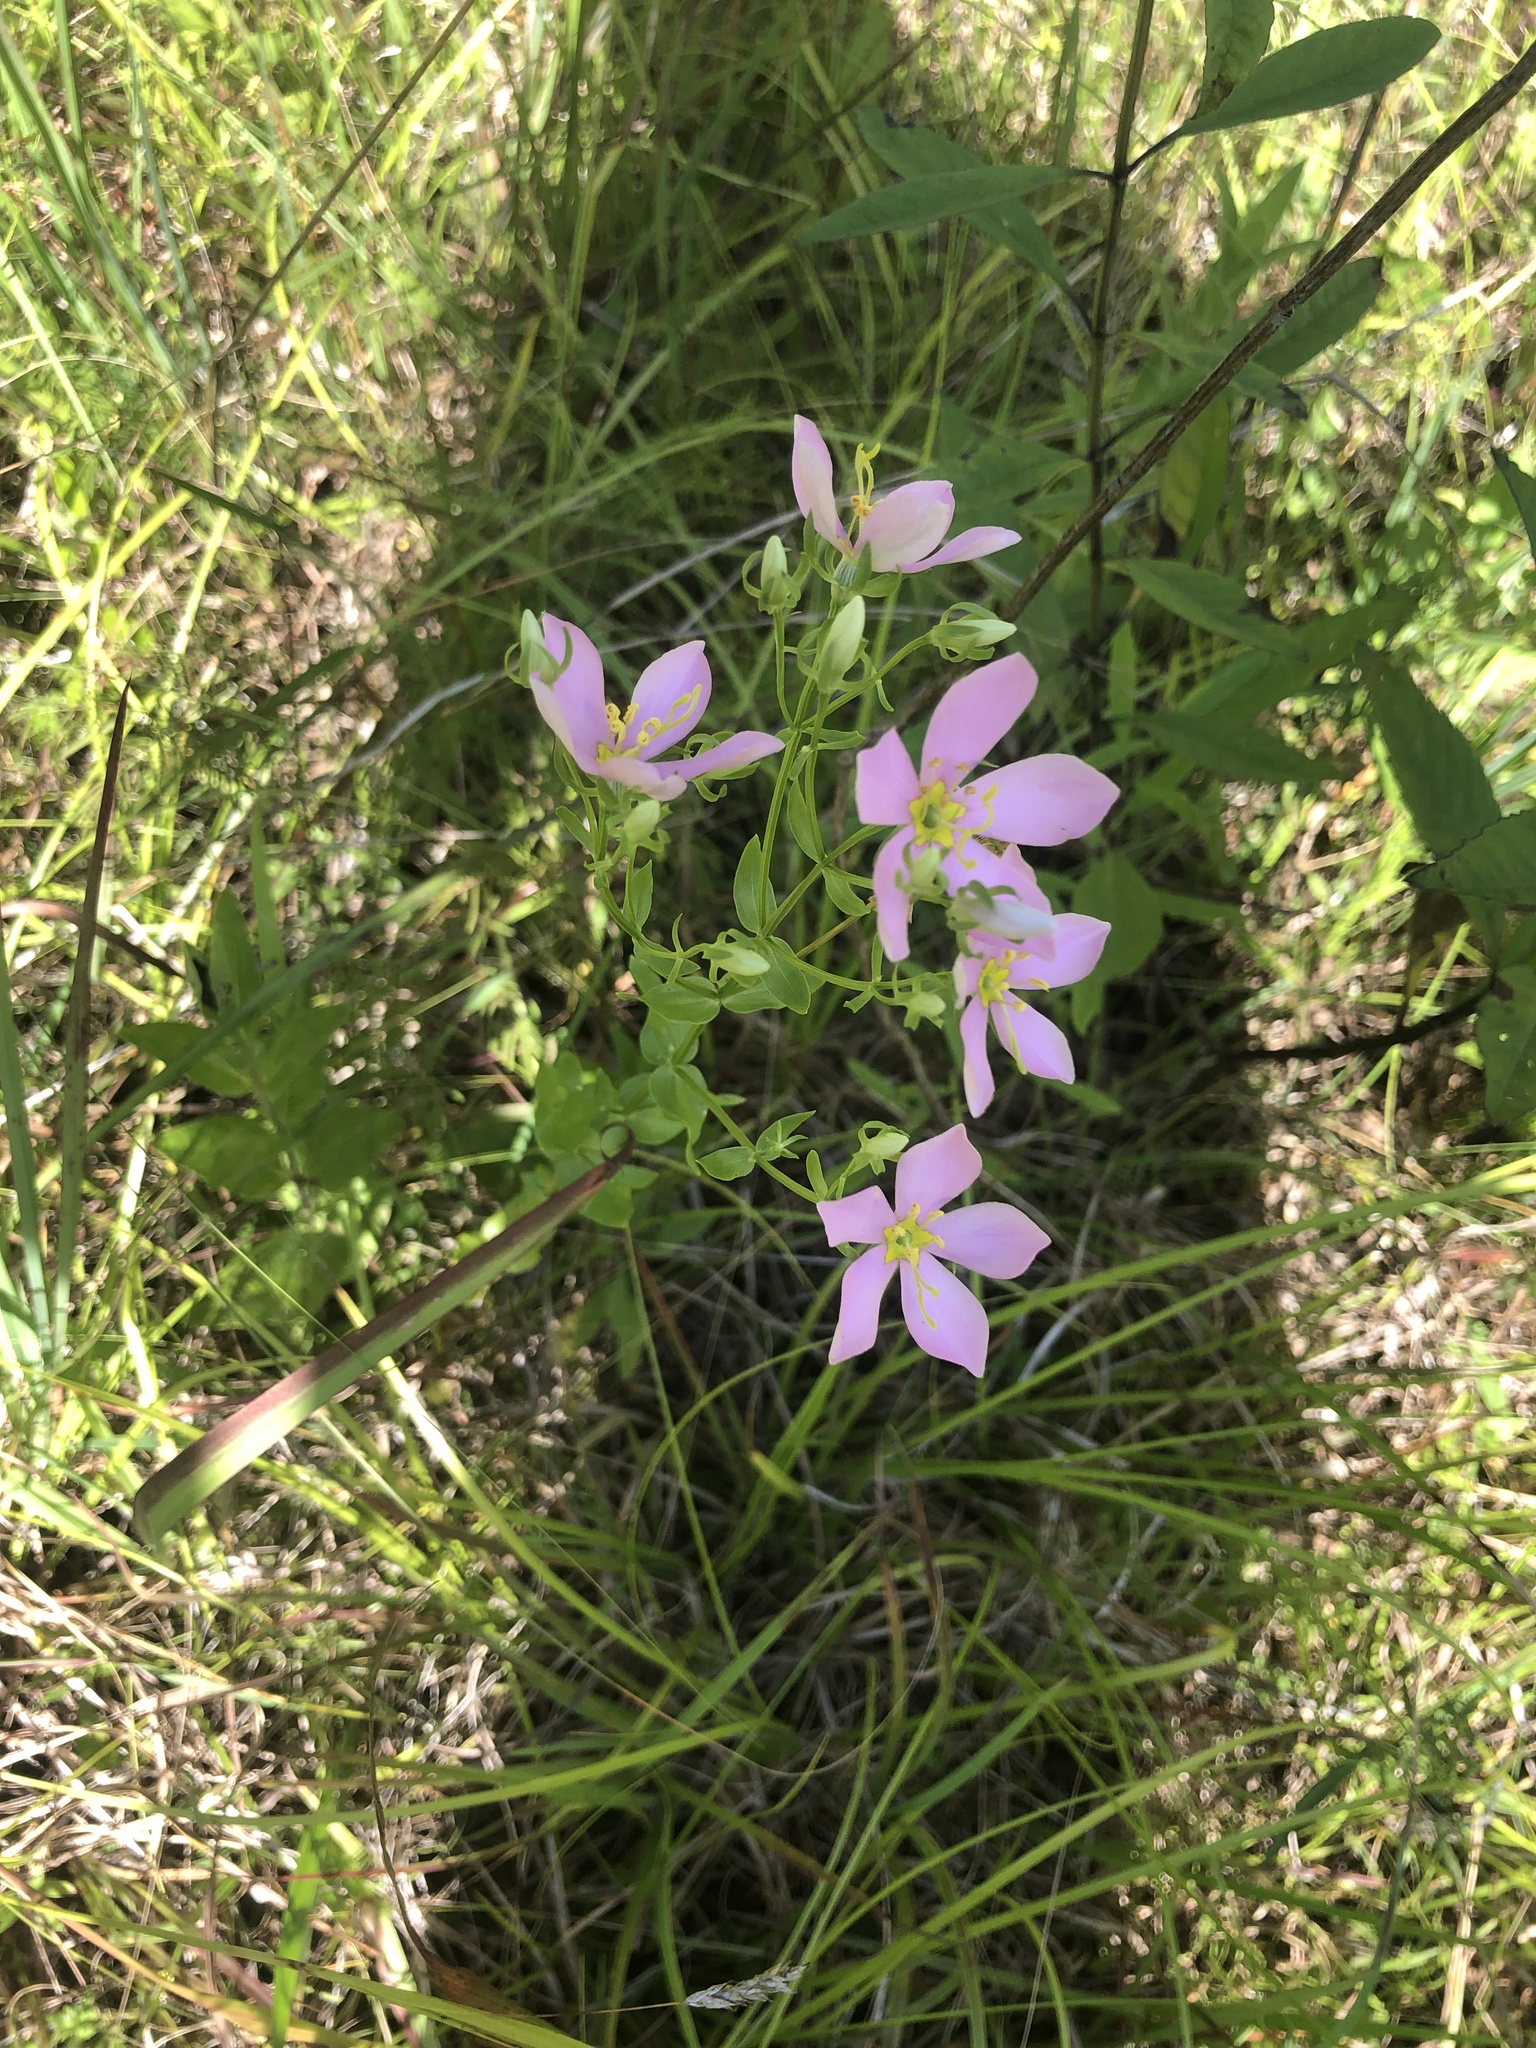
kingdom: Plantae
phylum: Tracheophyta
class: Magnoliopsida
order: Gentianales
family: Gentianaceae
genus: Sabatia
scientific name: Sabatia angularis
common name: Rose-pink
